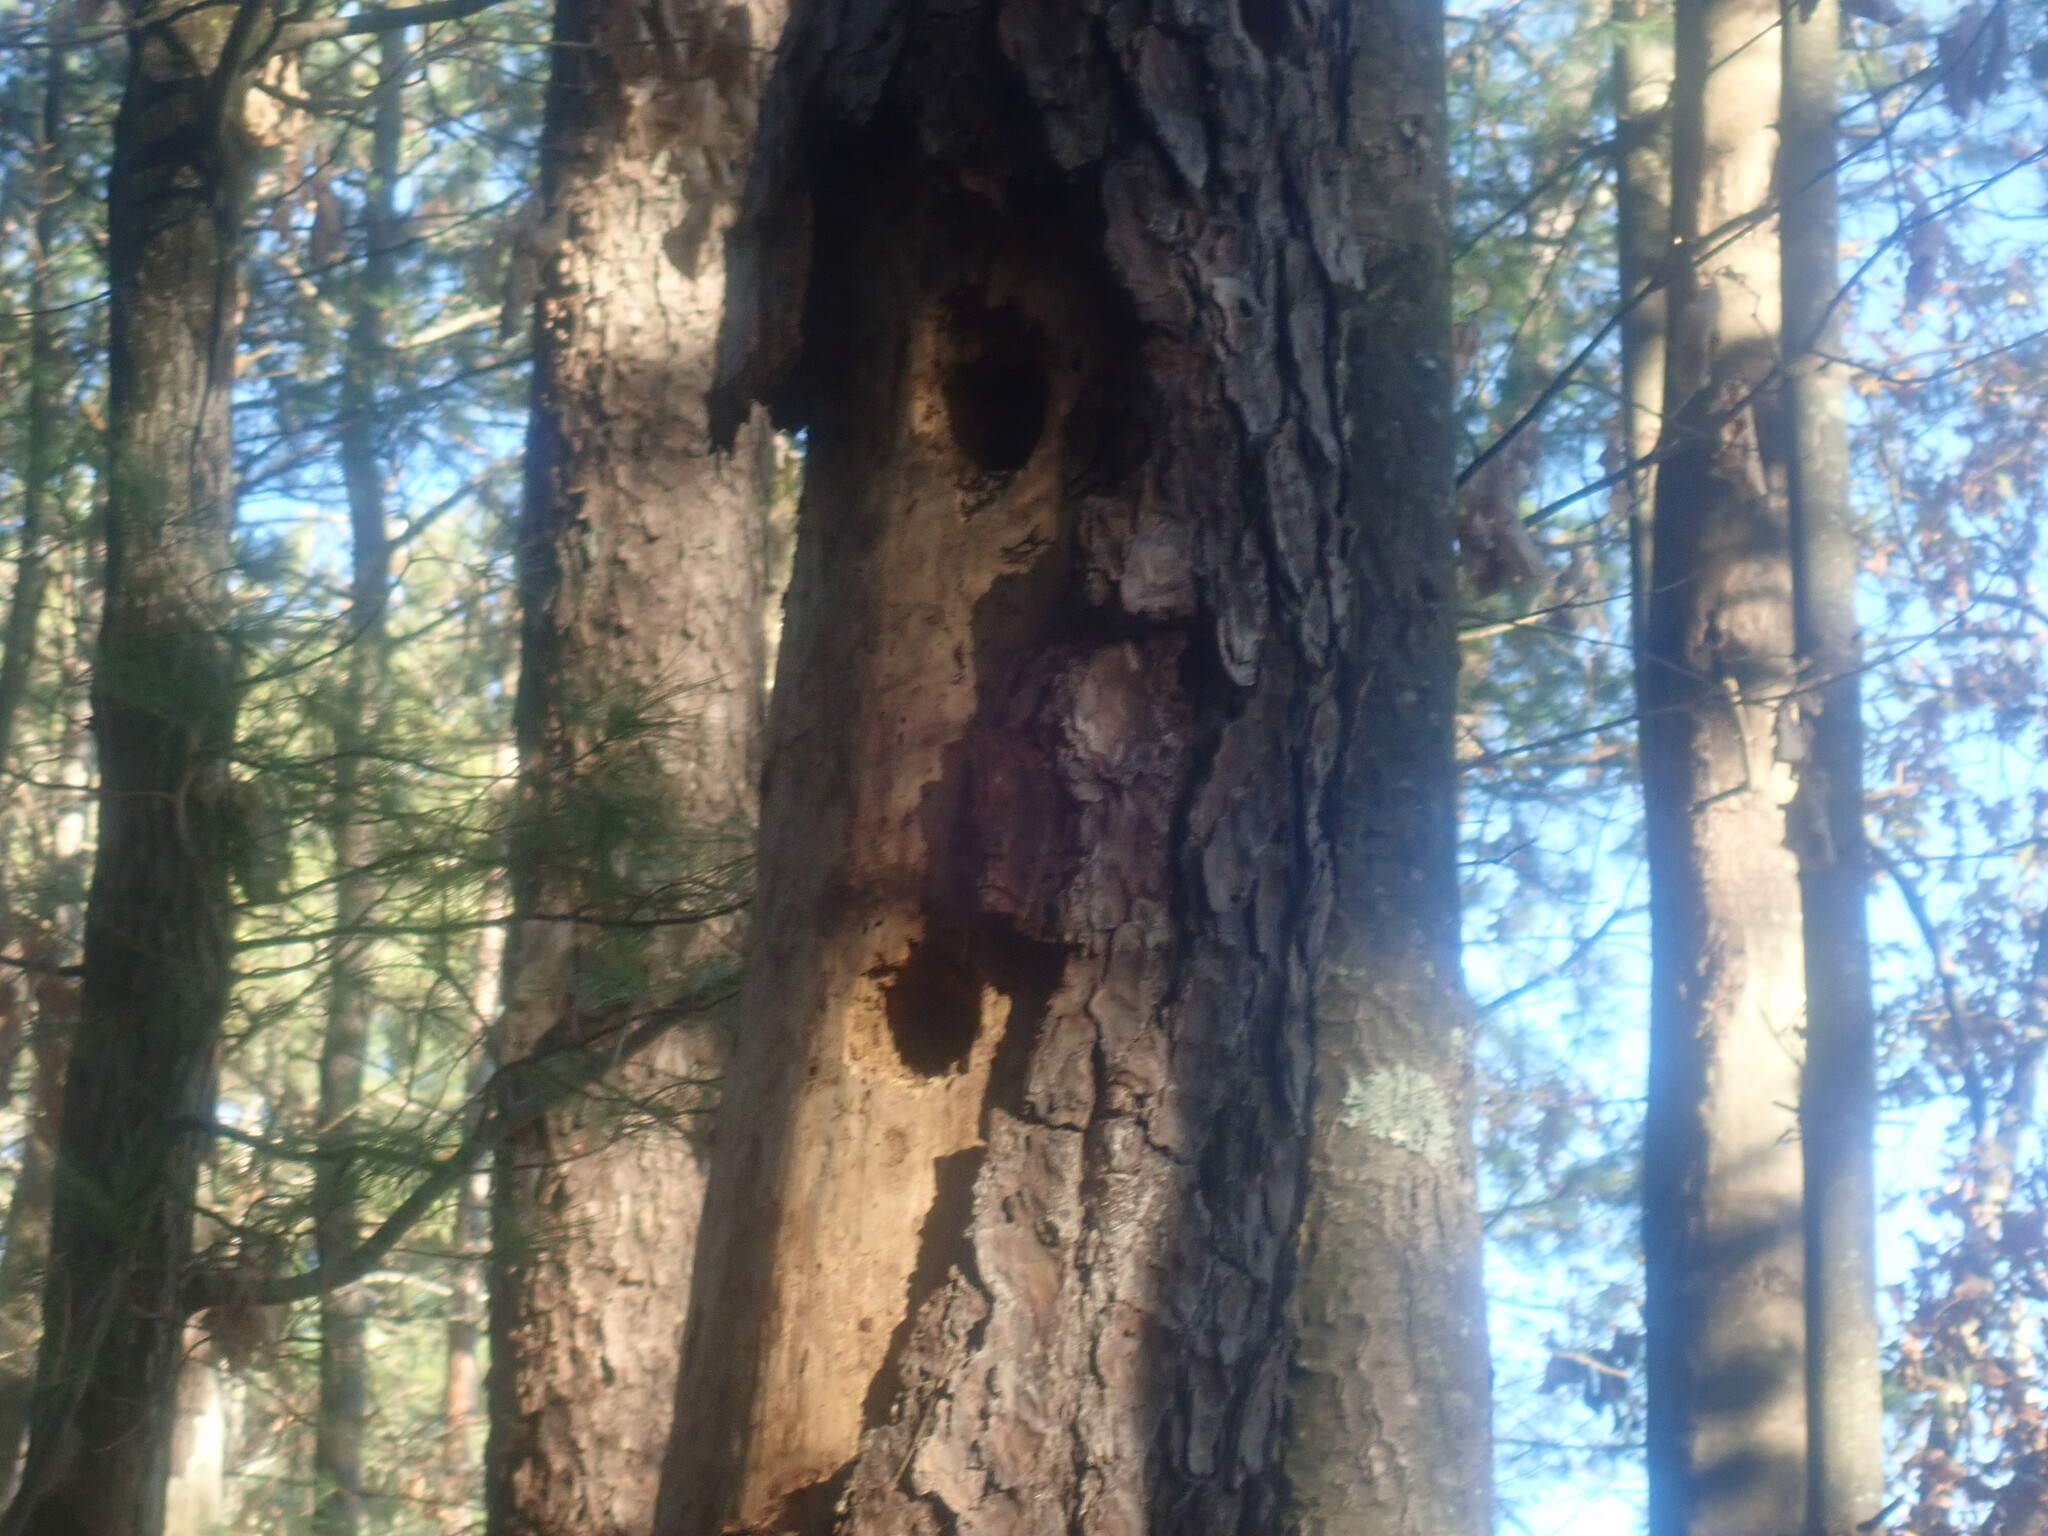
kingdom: Animalia
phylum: Chordata
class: Aves
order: Piciformes
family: Picidae
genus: Dryocopus
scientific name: Dryocopus pileatus
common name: Pileated woodpecker
